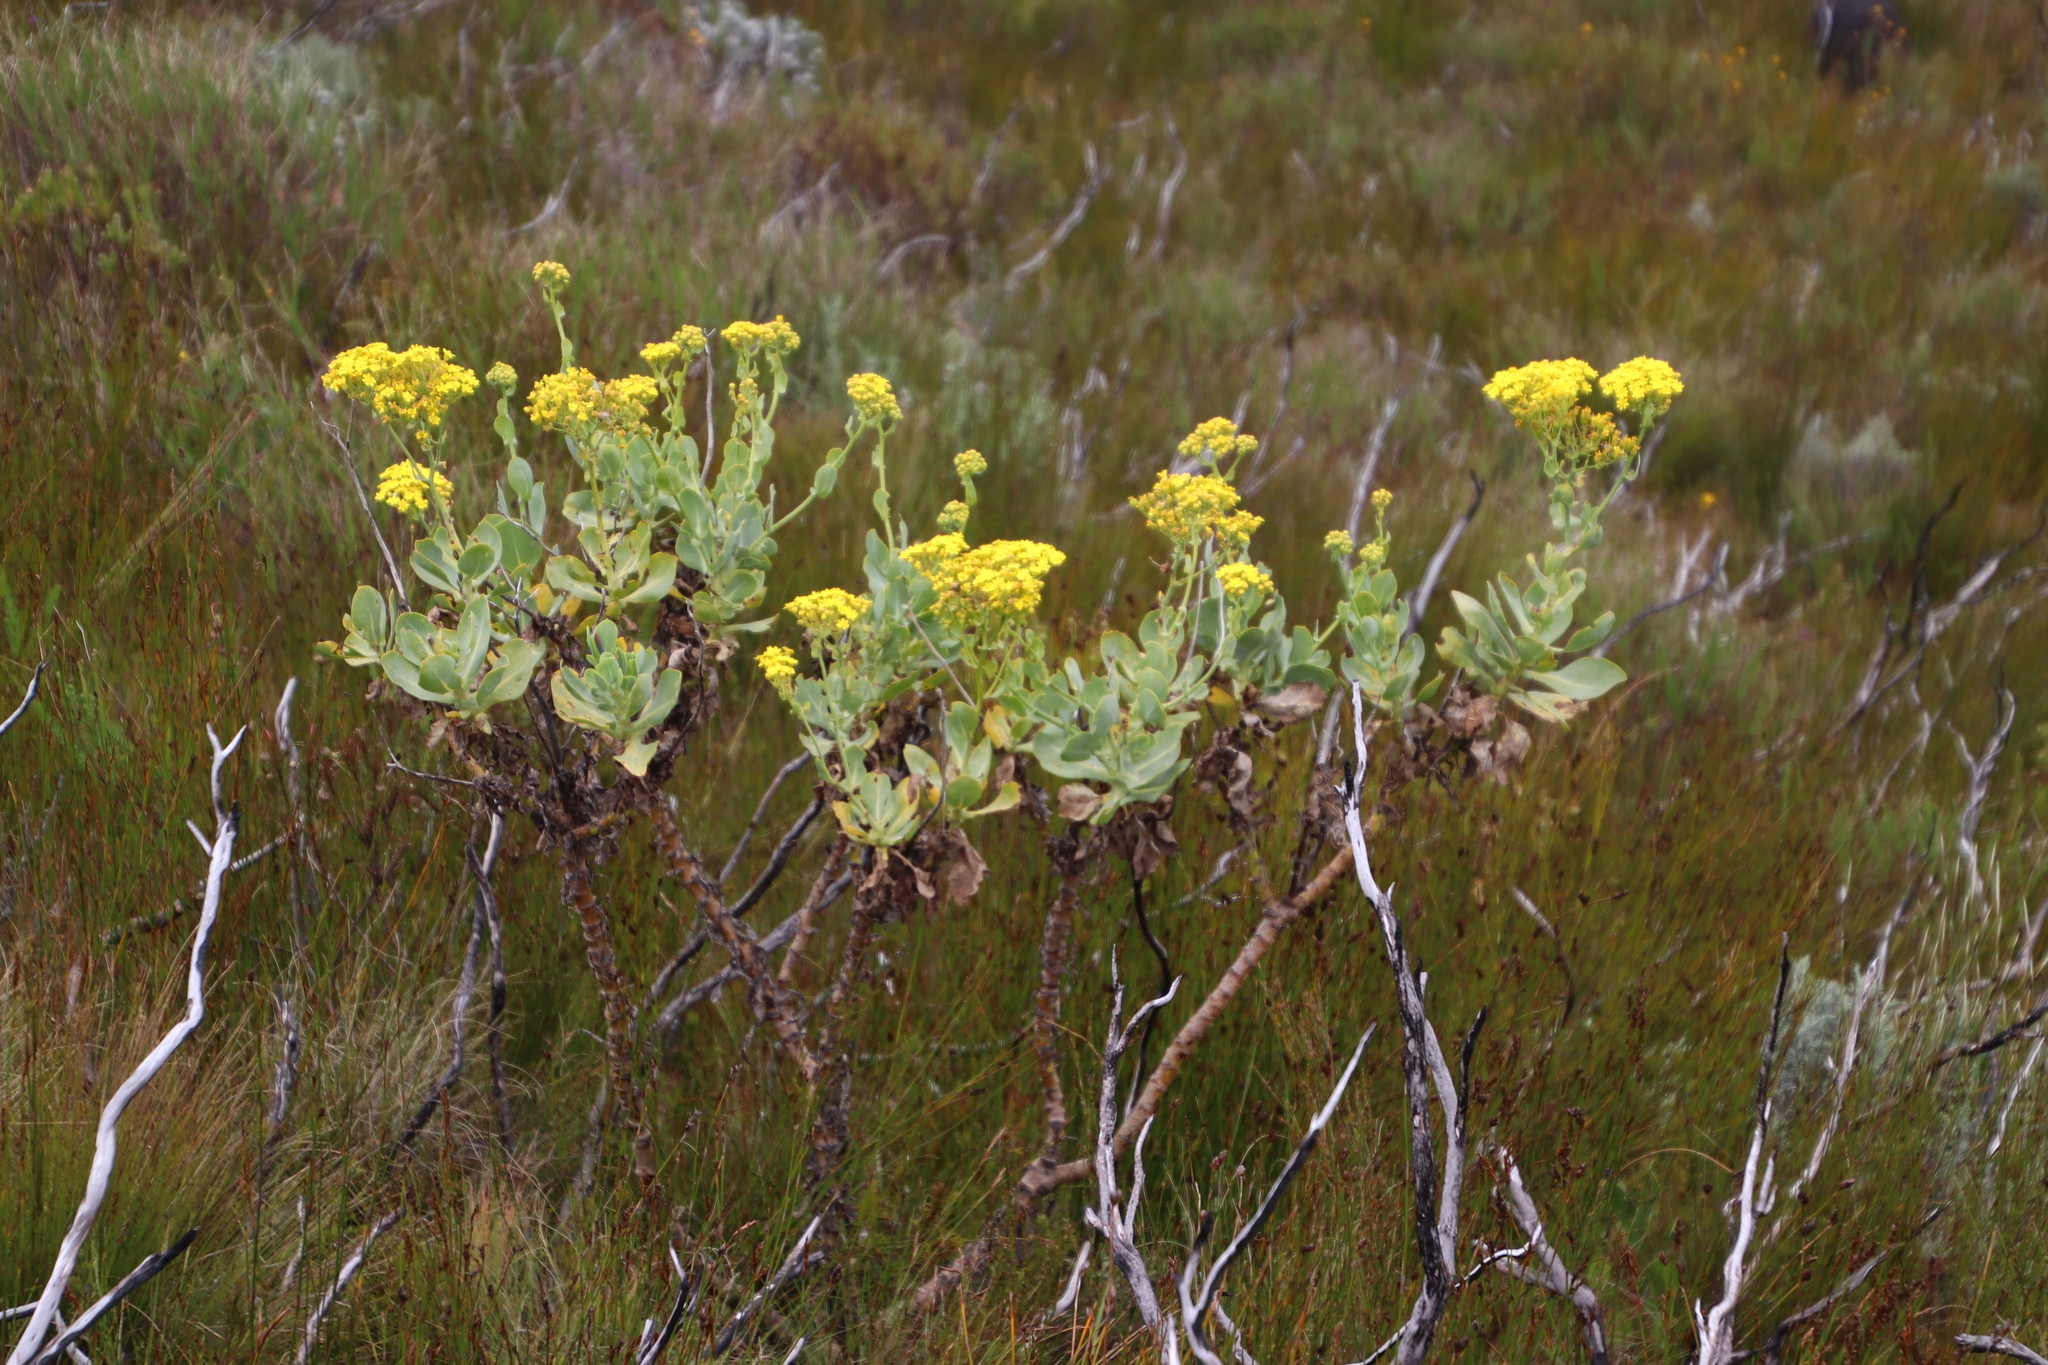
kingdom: Plantae
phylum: Tracheophyta
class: Magnoliopsida
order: Asterales
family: Asteraceae
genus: Othonna
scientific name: Othonna parviflora
